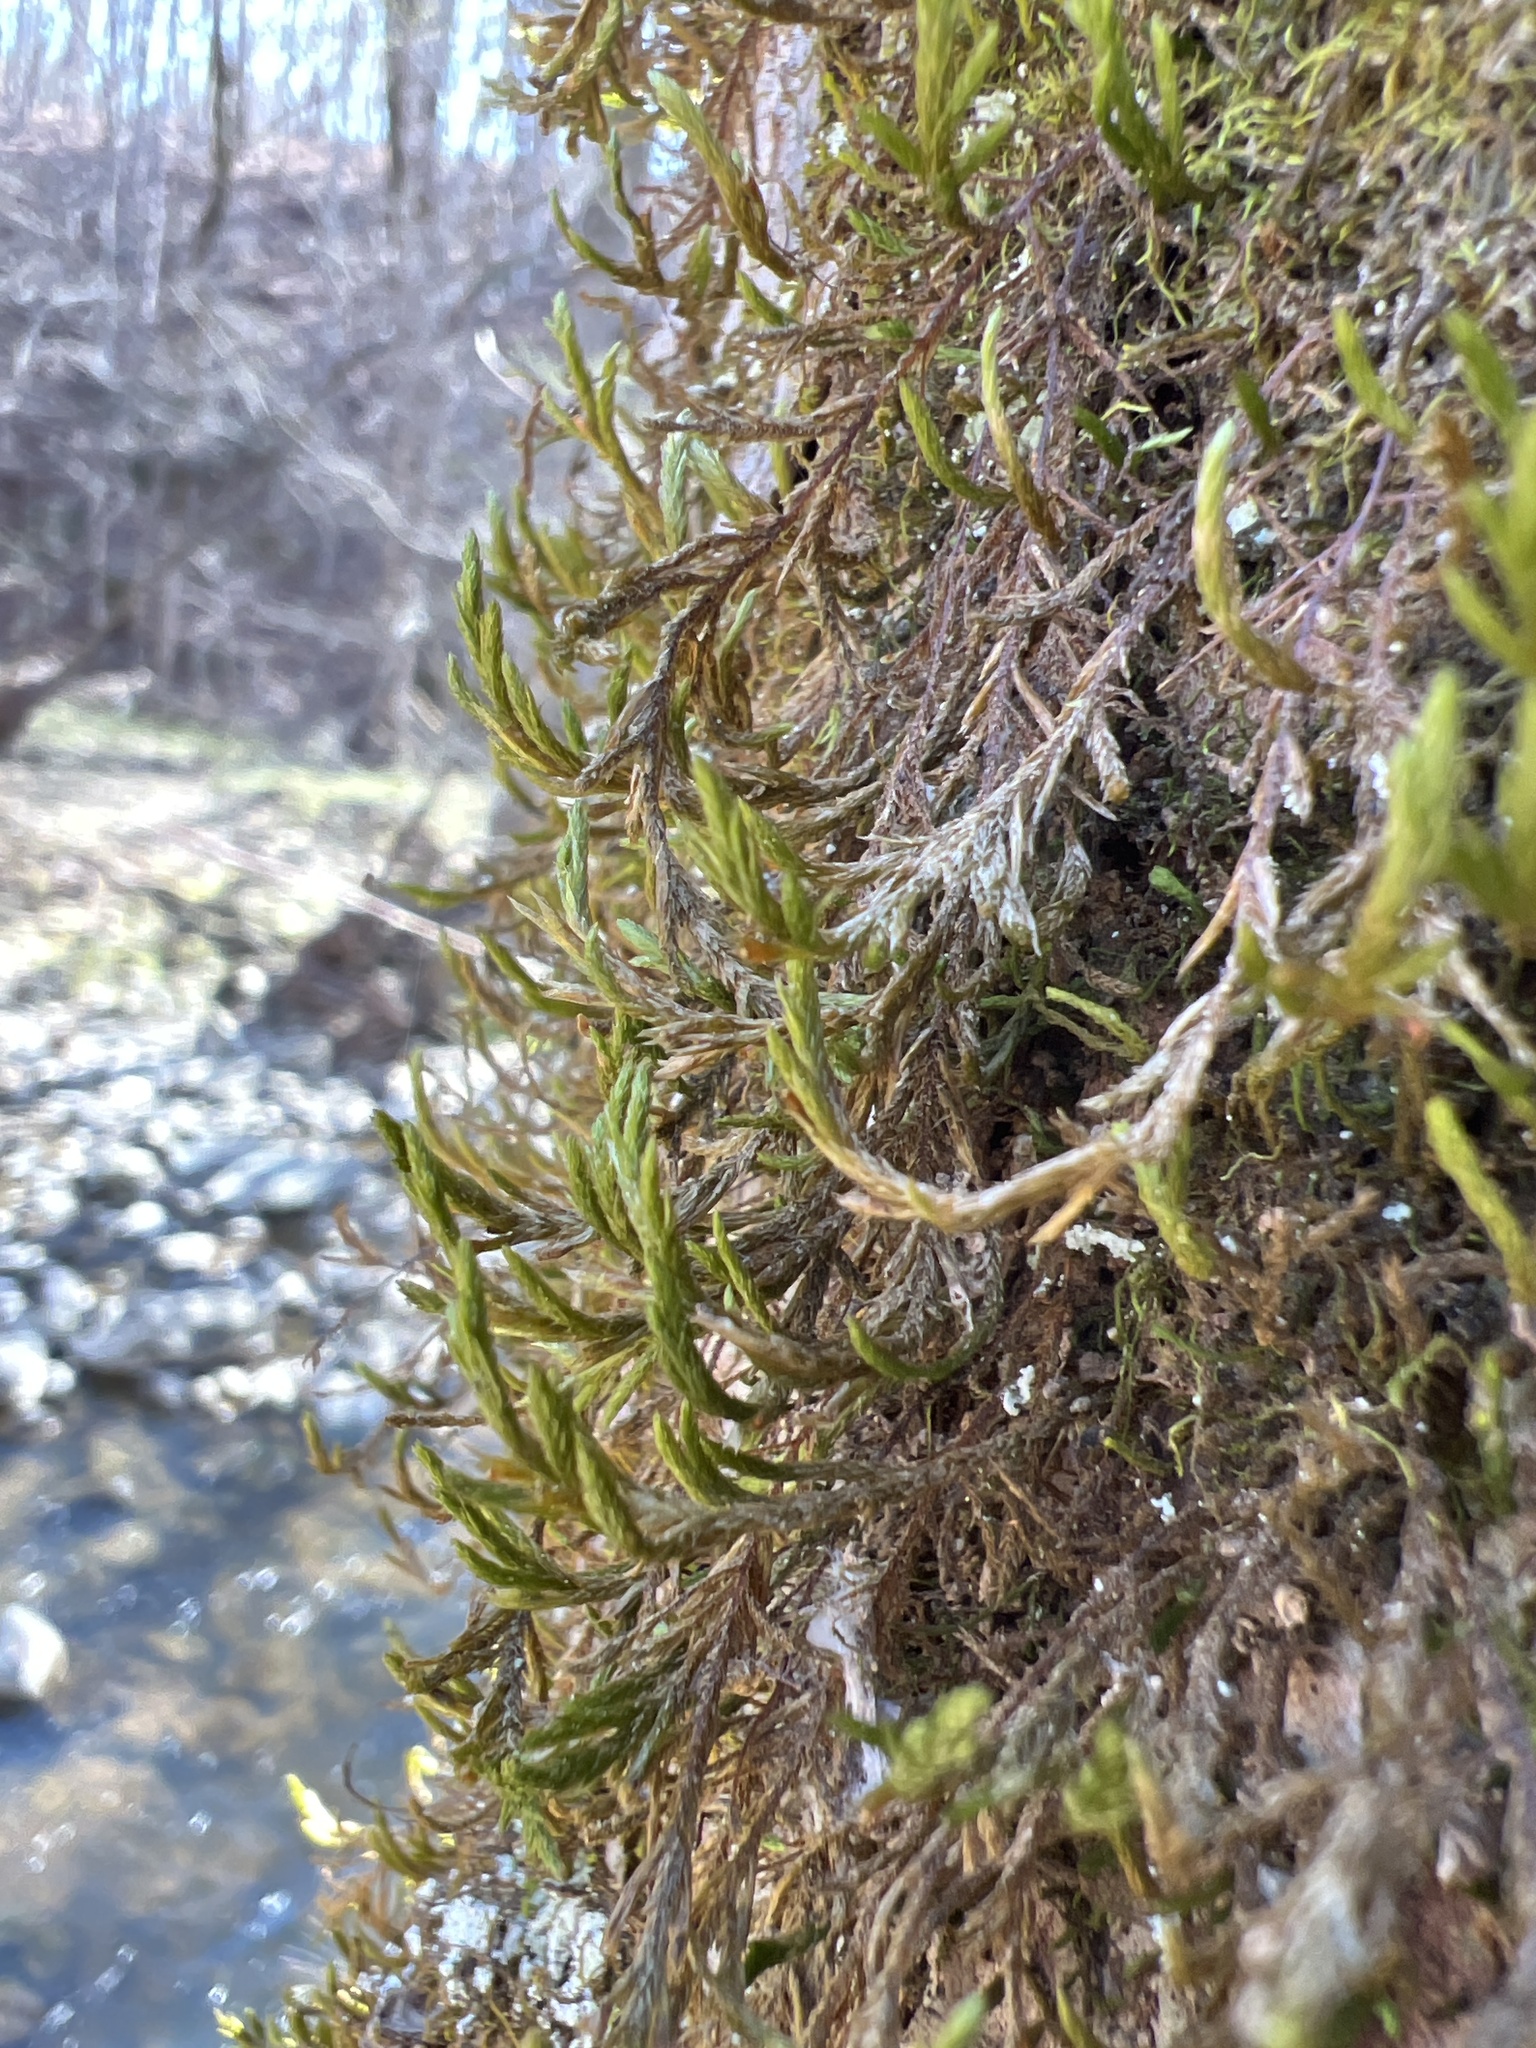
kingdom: Plantae
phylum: Bryophyta
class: Bryopsida
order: Hypnales
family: Neckeraceae
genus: Forsstroemia
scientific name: Forsstroemia trichomitria
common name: Fan moss
